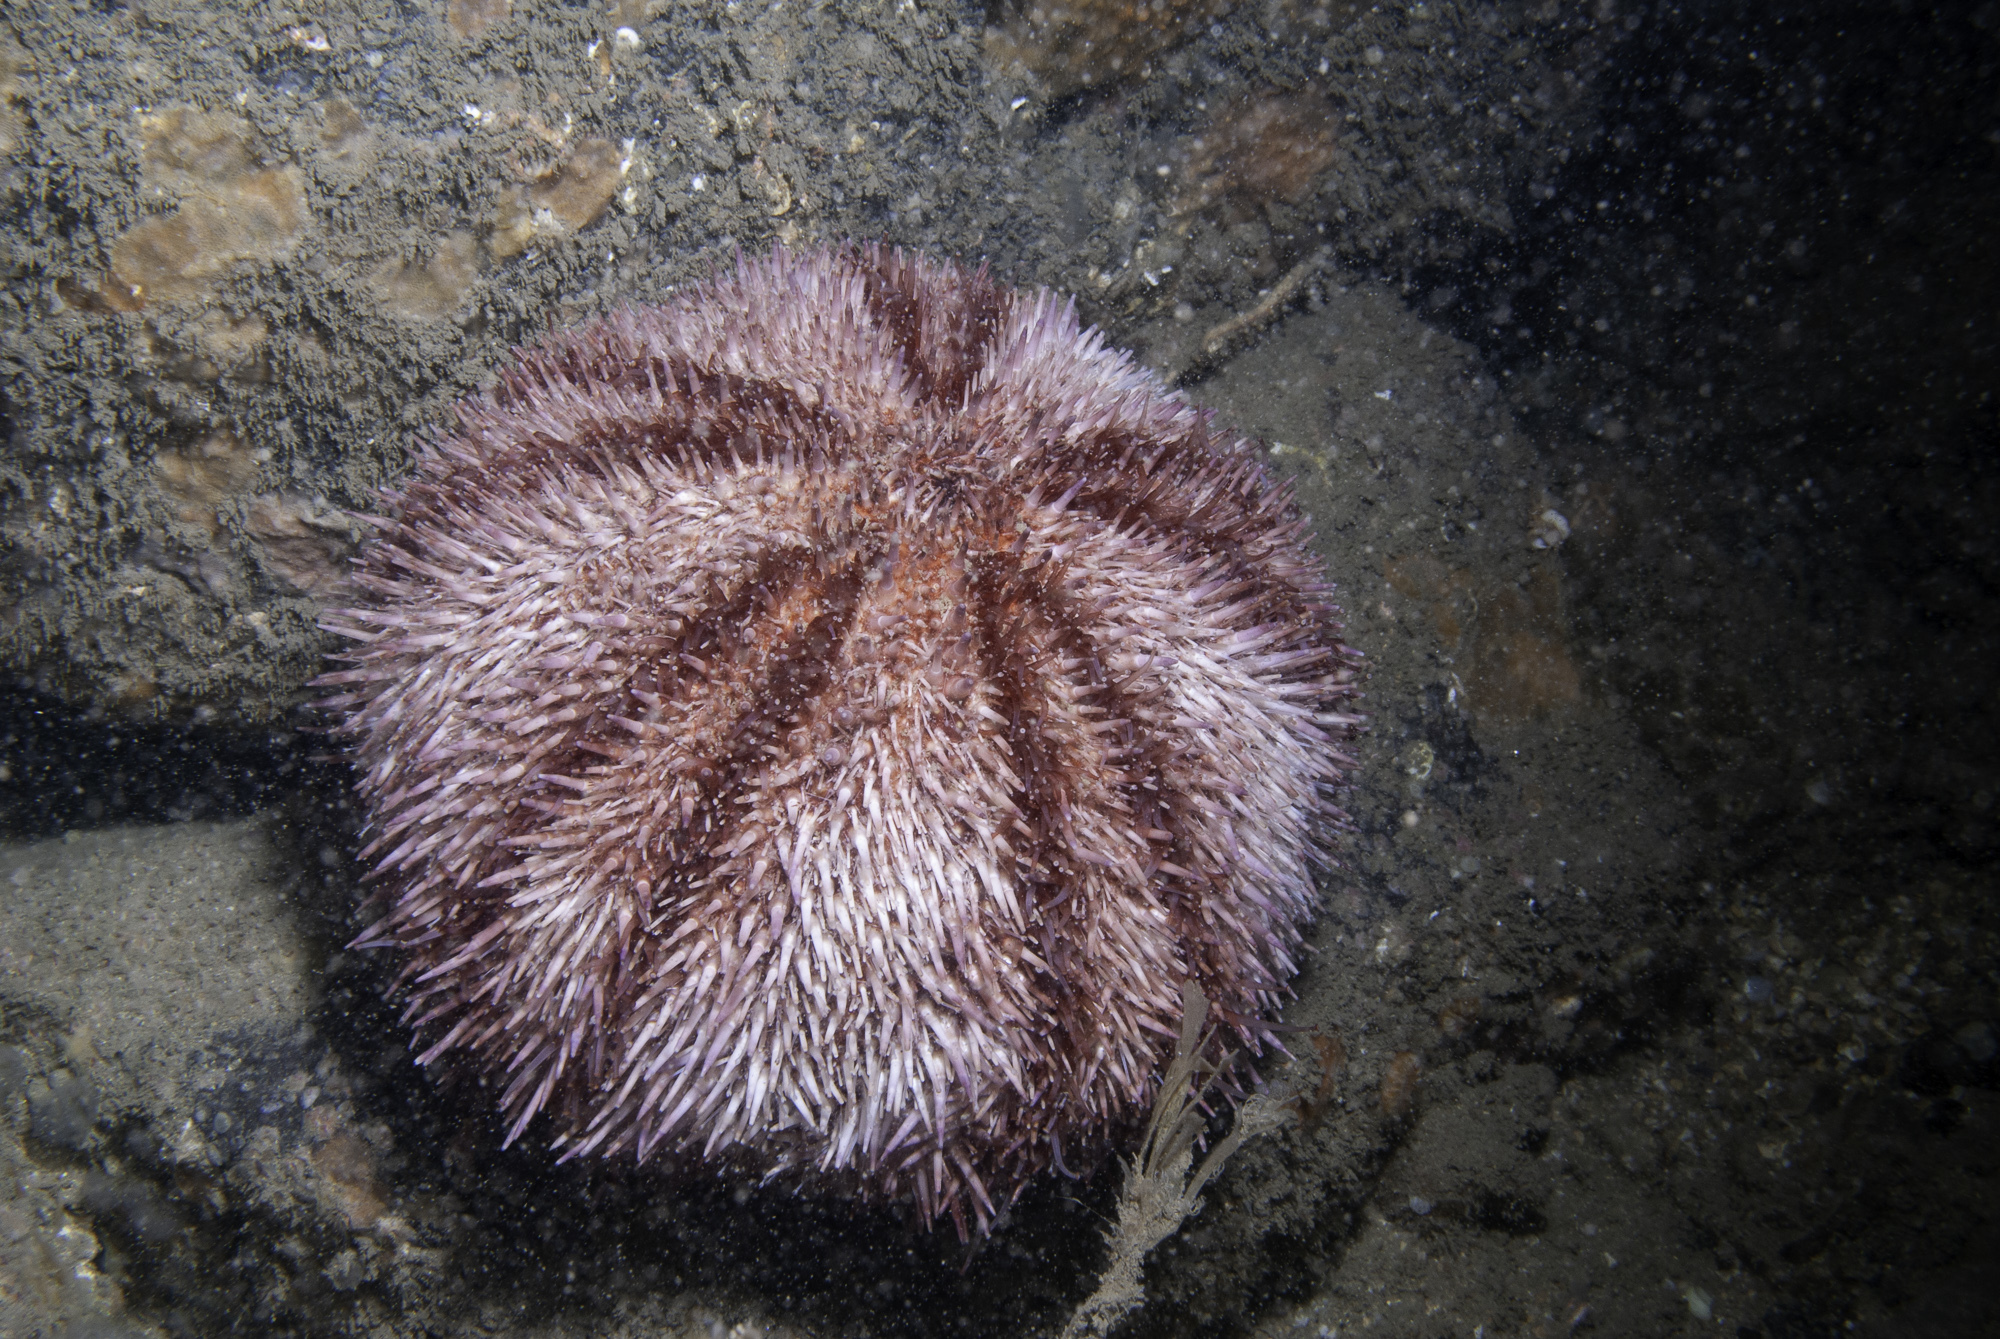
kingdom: Animalia
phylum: Echinodermata
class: Echinoidea
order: Camarodonta
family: Echinidae
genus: Echinus
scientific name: Echinus esculentus
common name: Edible sea urchin
